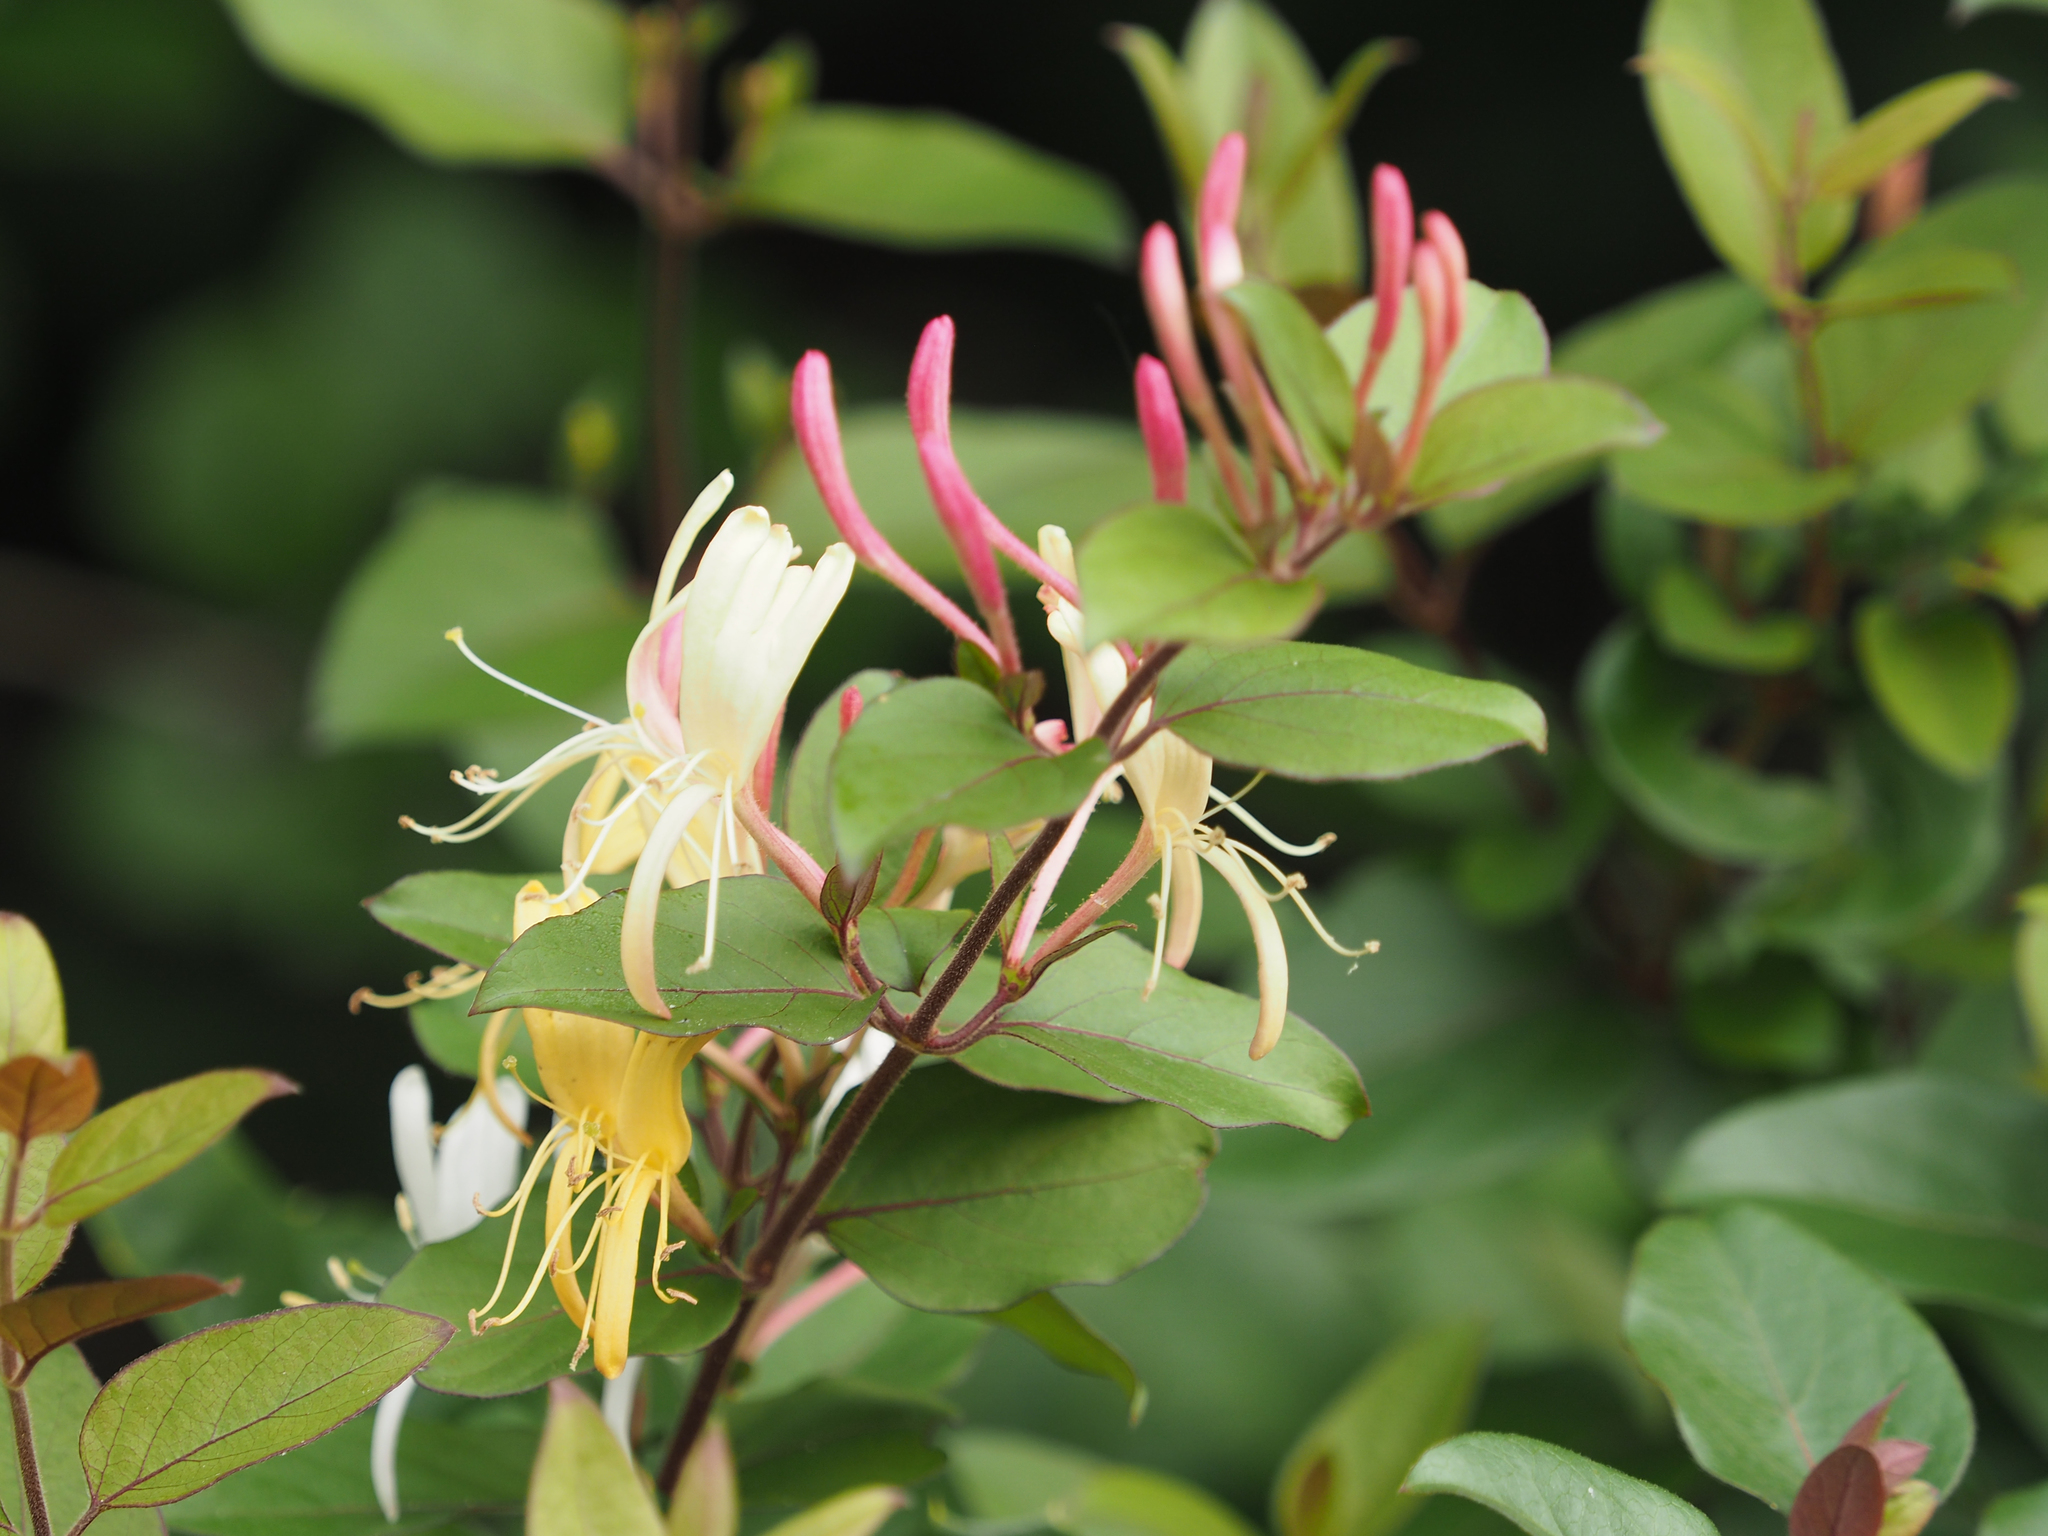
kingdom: Plantae
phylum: Tracheophyta
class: Magnoliopsida
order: Dipsacales
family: Caprifoliaceae
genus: Lonicera
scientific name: Lonicera japonica
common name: Japanese honeysuckle
